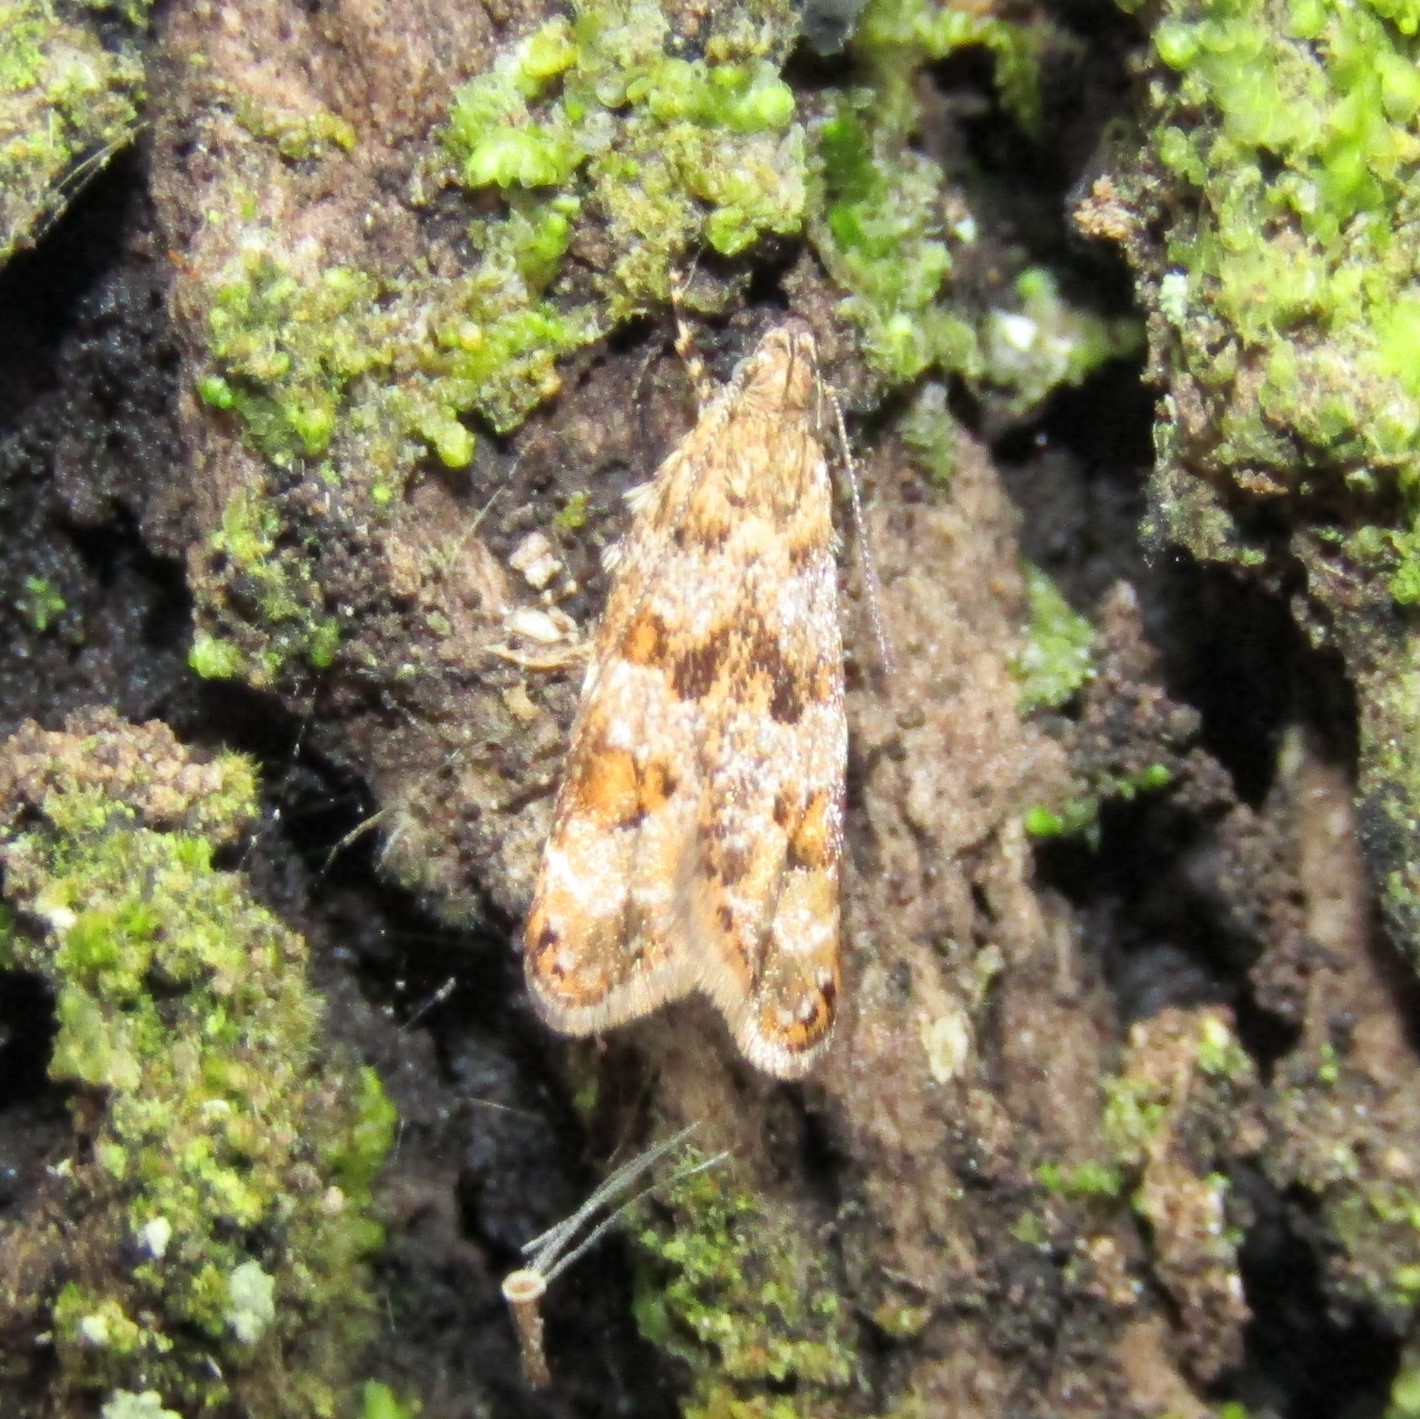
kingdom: Animalia
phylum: Arthropoda
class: Insecta
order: Lepidoptera
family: Oecophoridae
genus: Gymnobathra
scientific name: Gymnobathra omphalota
